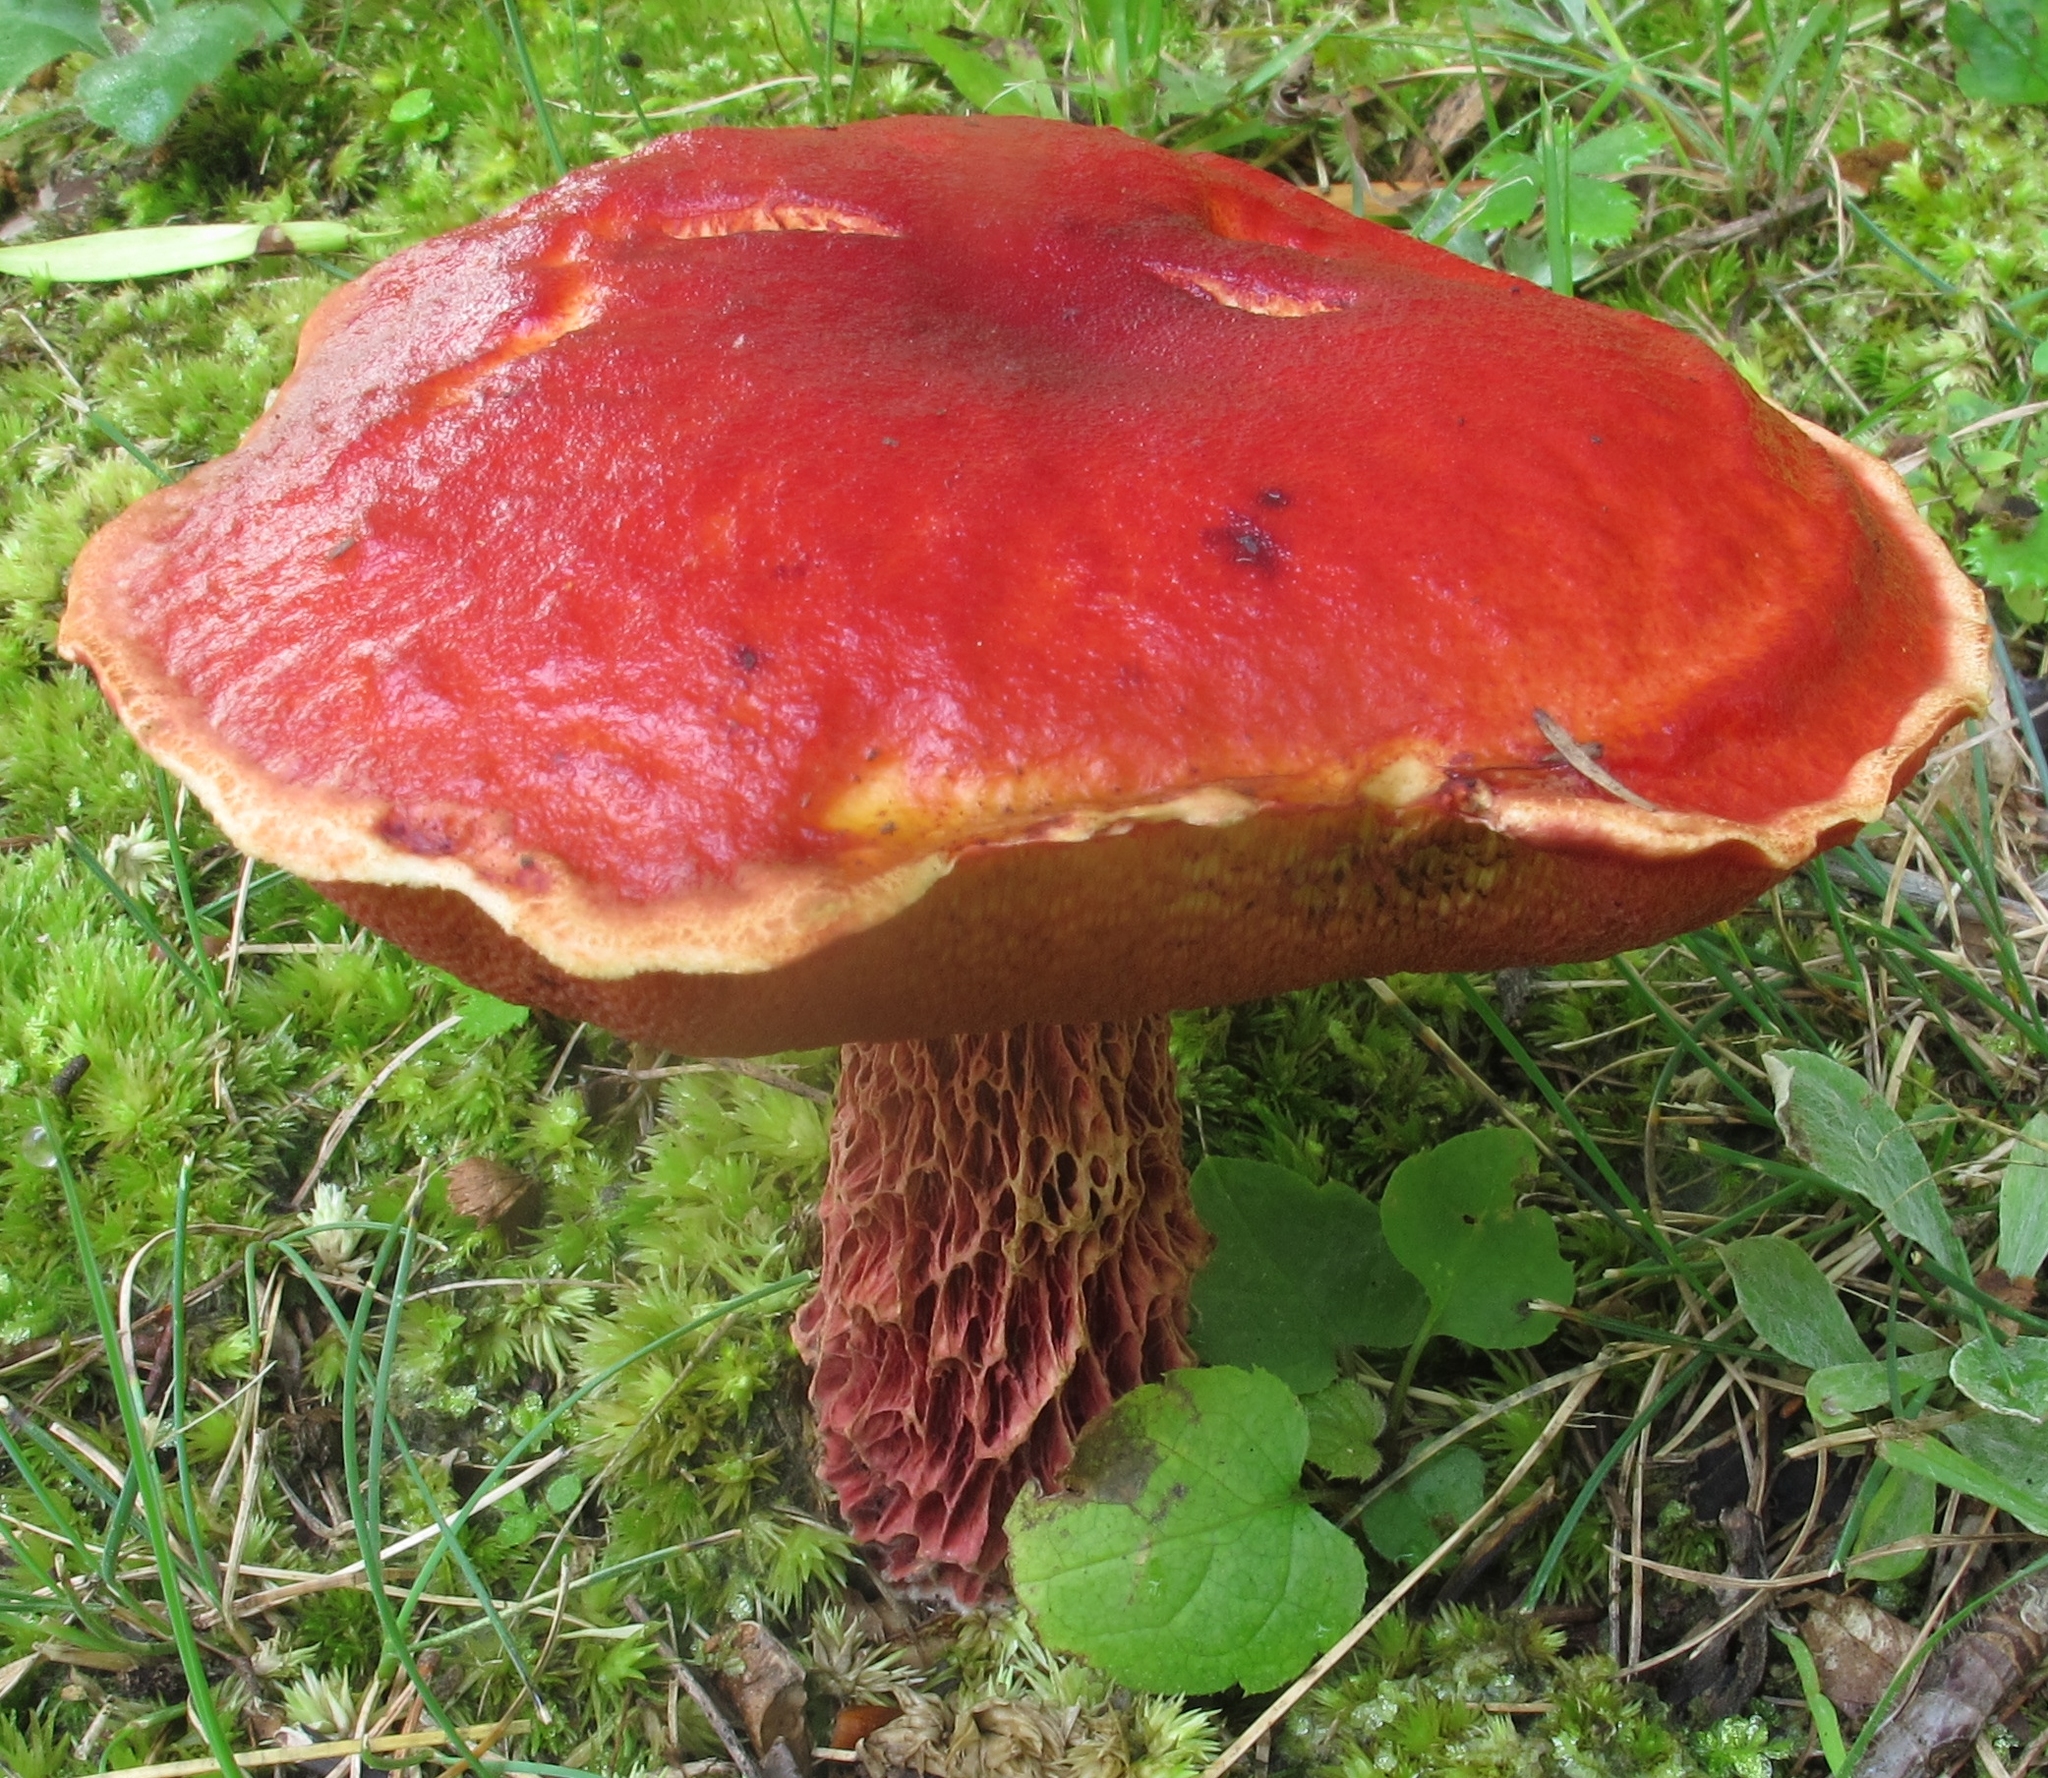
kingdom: Fungi
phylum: Basidiomycota
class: Agaricomycetes
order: Boletales
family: Boletaceae
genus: Butyriboletus
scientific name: Butyriboletus frostii
